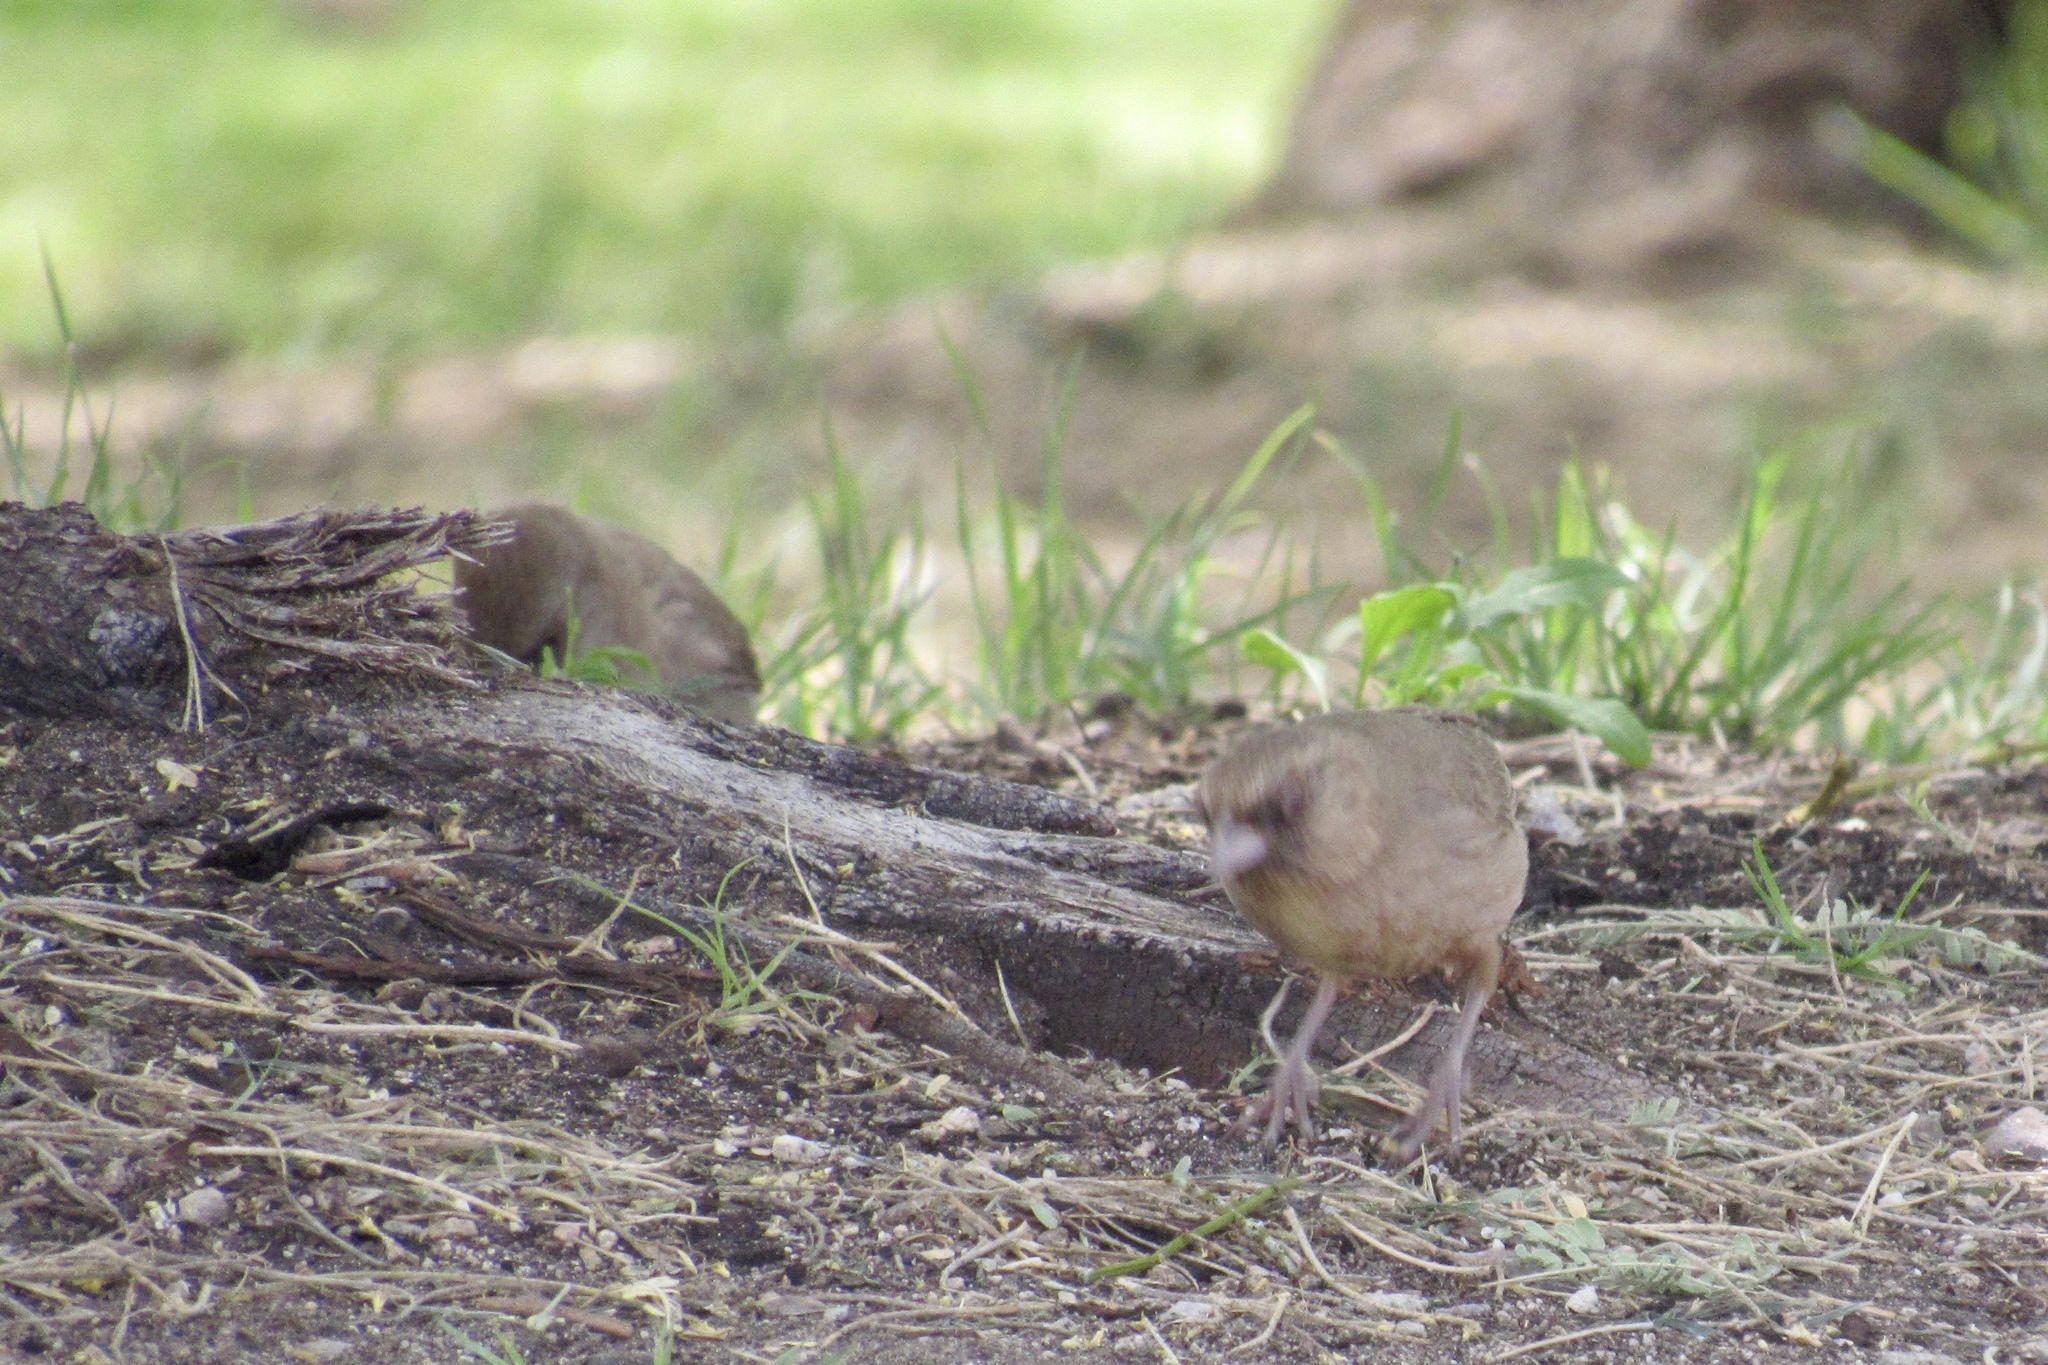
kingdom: Animalia
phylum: Chordata
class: Aves
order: Passeriformes
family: Passerellidae
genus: Melozone
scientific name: Melozone aberti
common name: Abert's towhee
